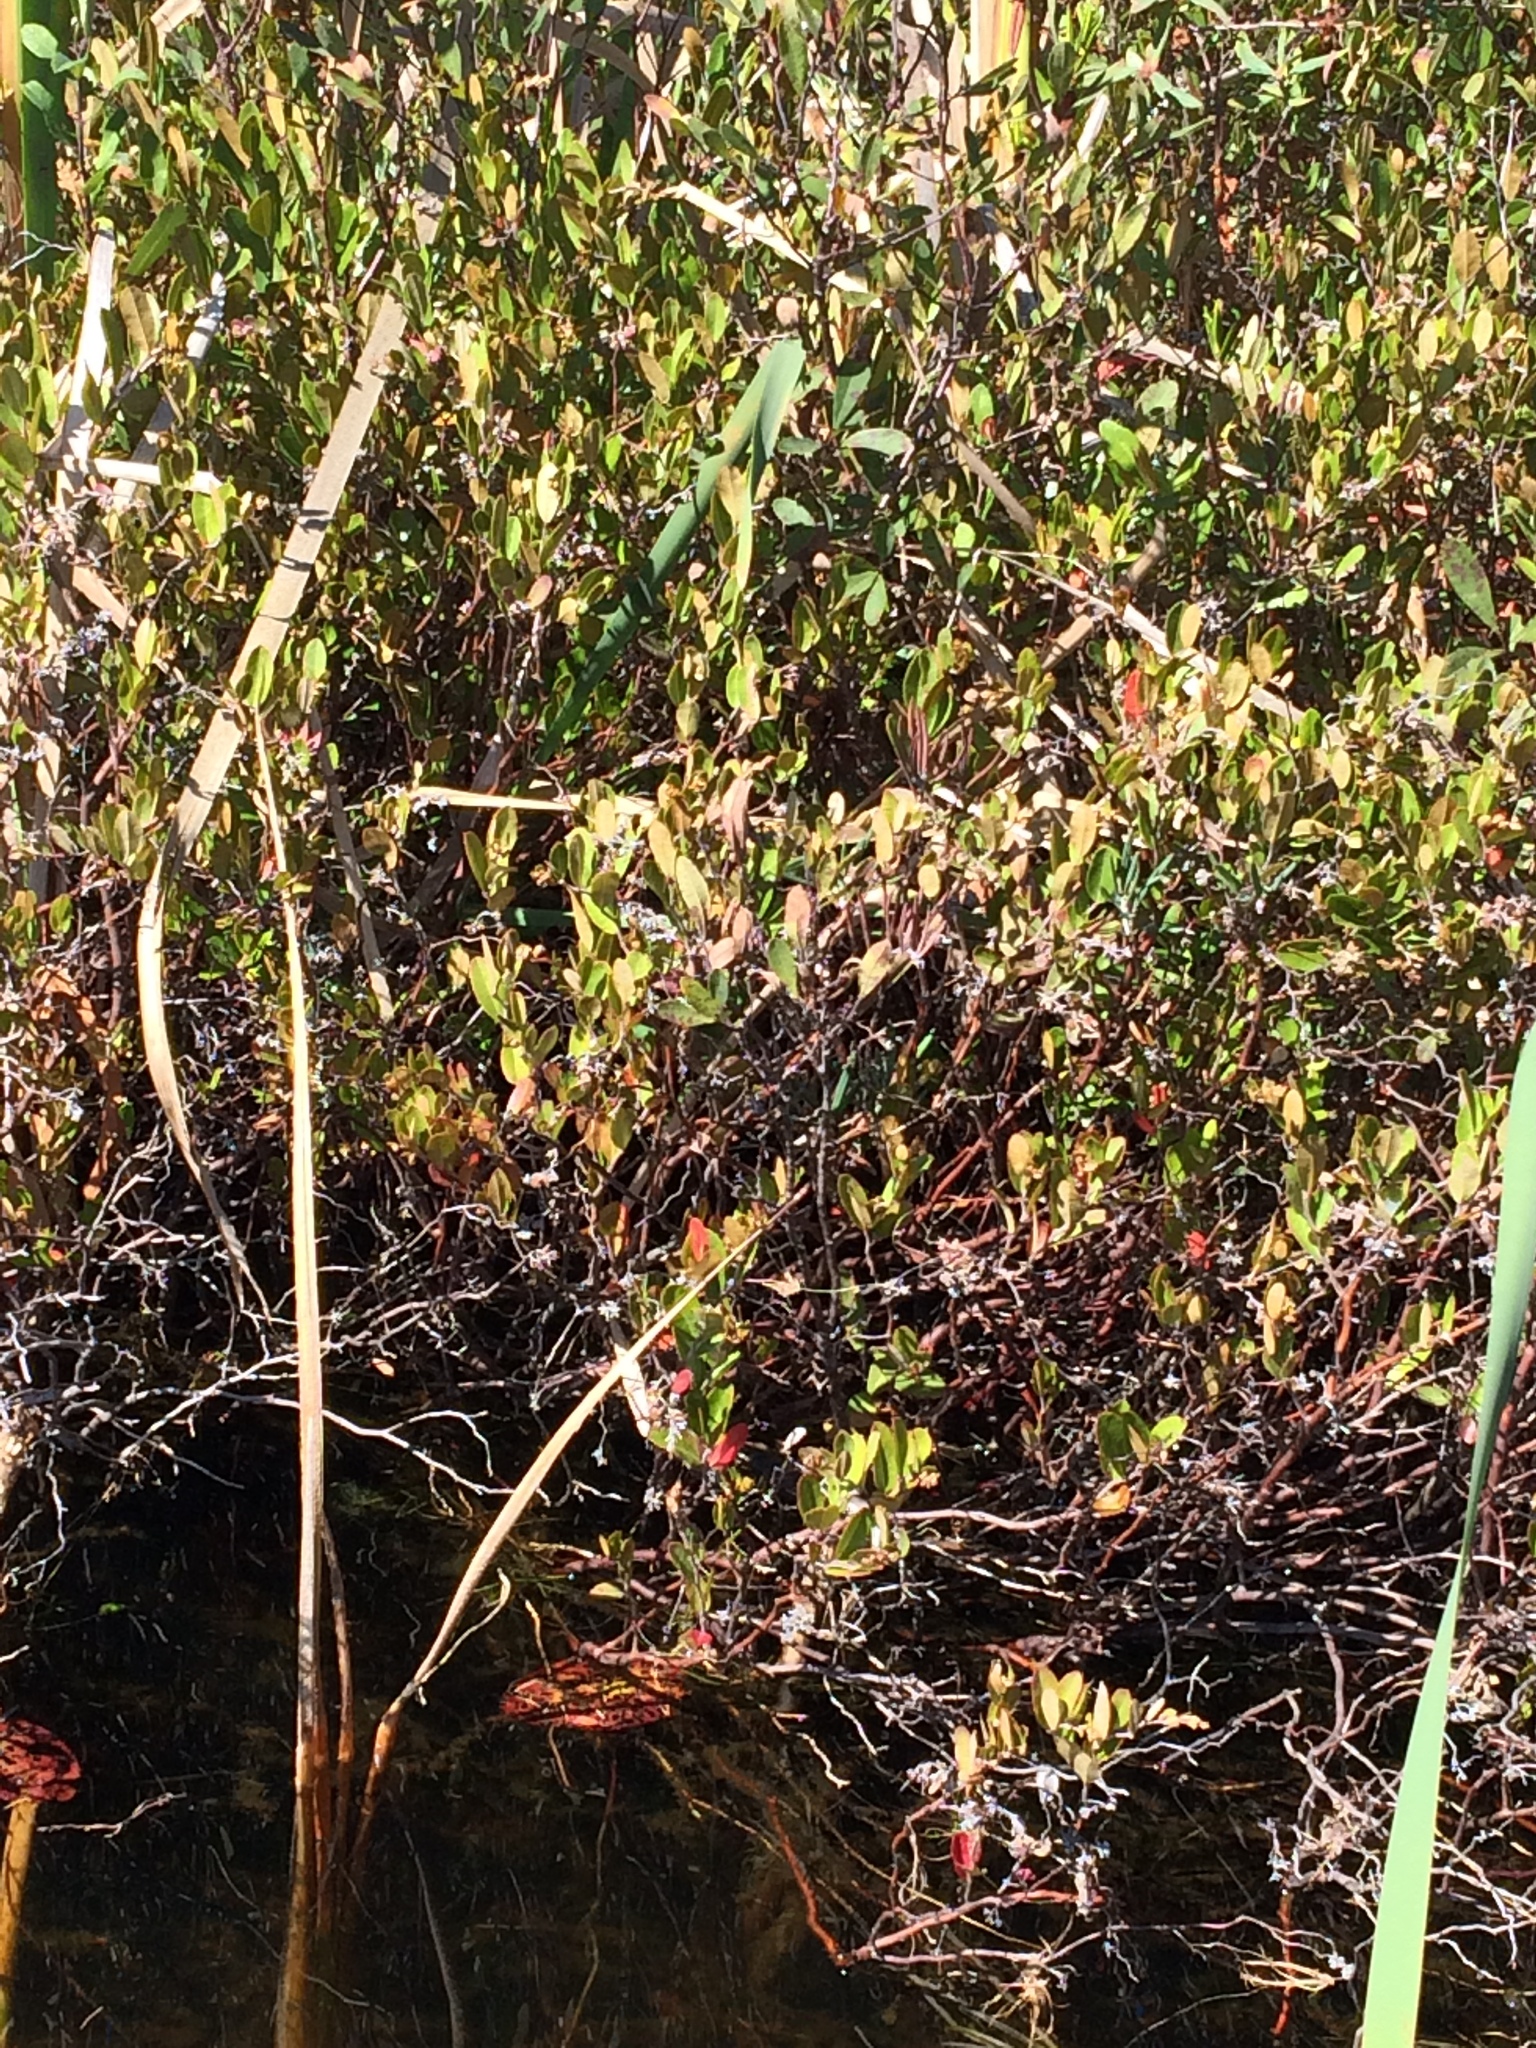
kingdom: Plantae
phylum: Tracheophyta
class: Magnoliopsida
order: Ericales
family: Ericaceae
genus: Chamaedaphne
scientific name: Chamaedaphne calyculata
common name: Leatherleaf
